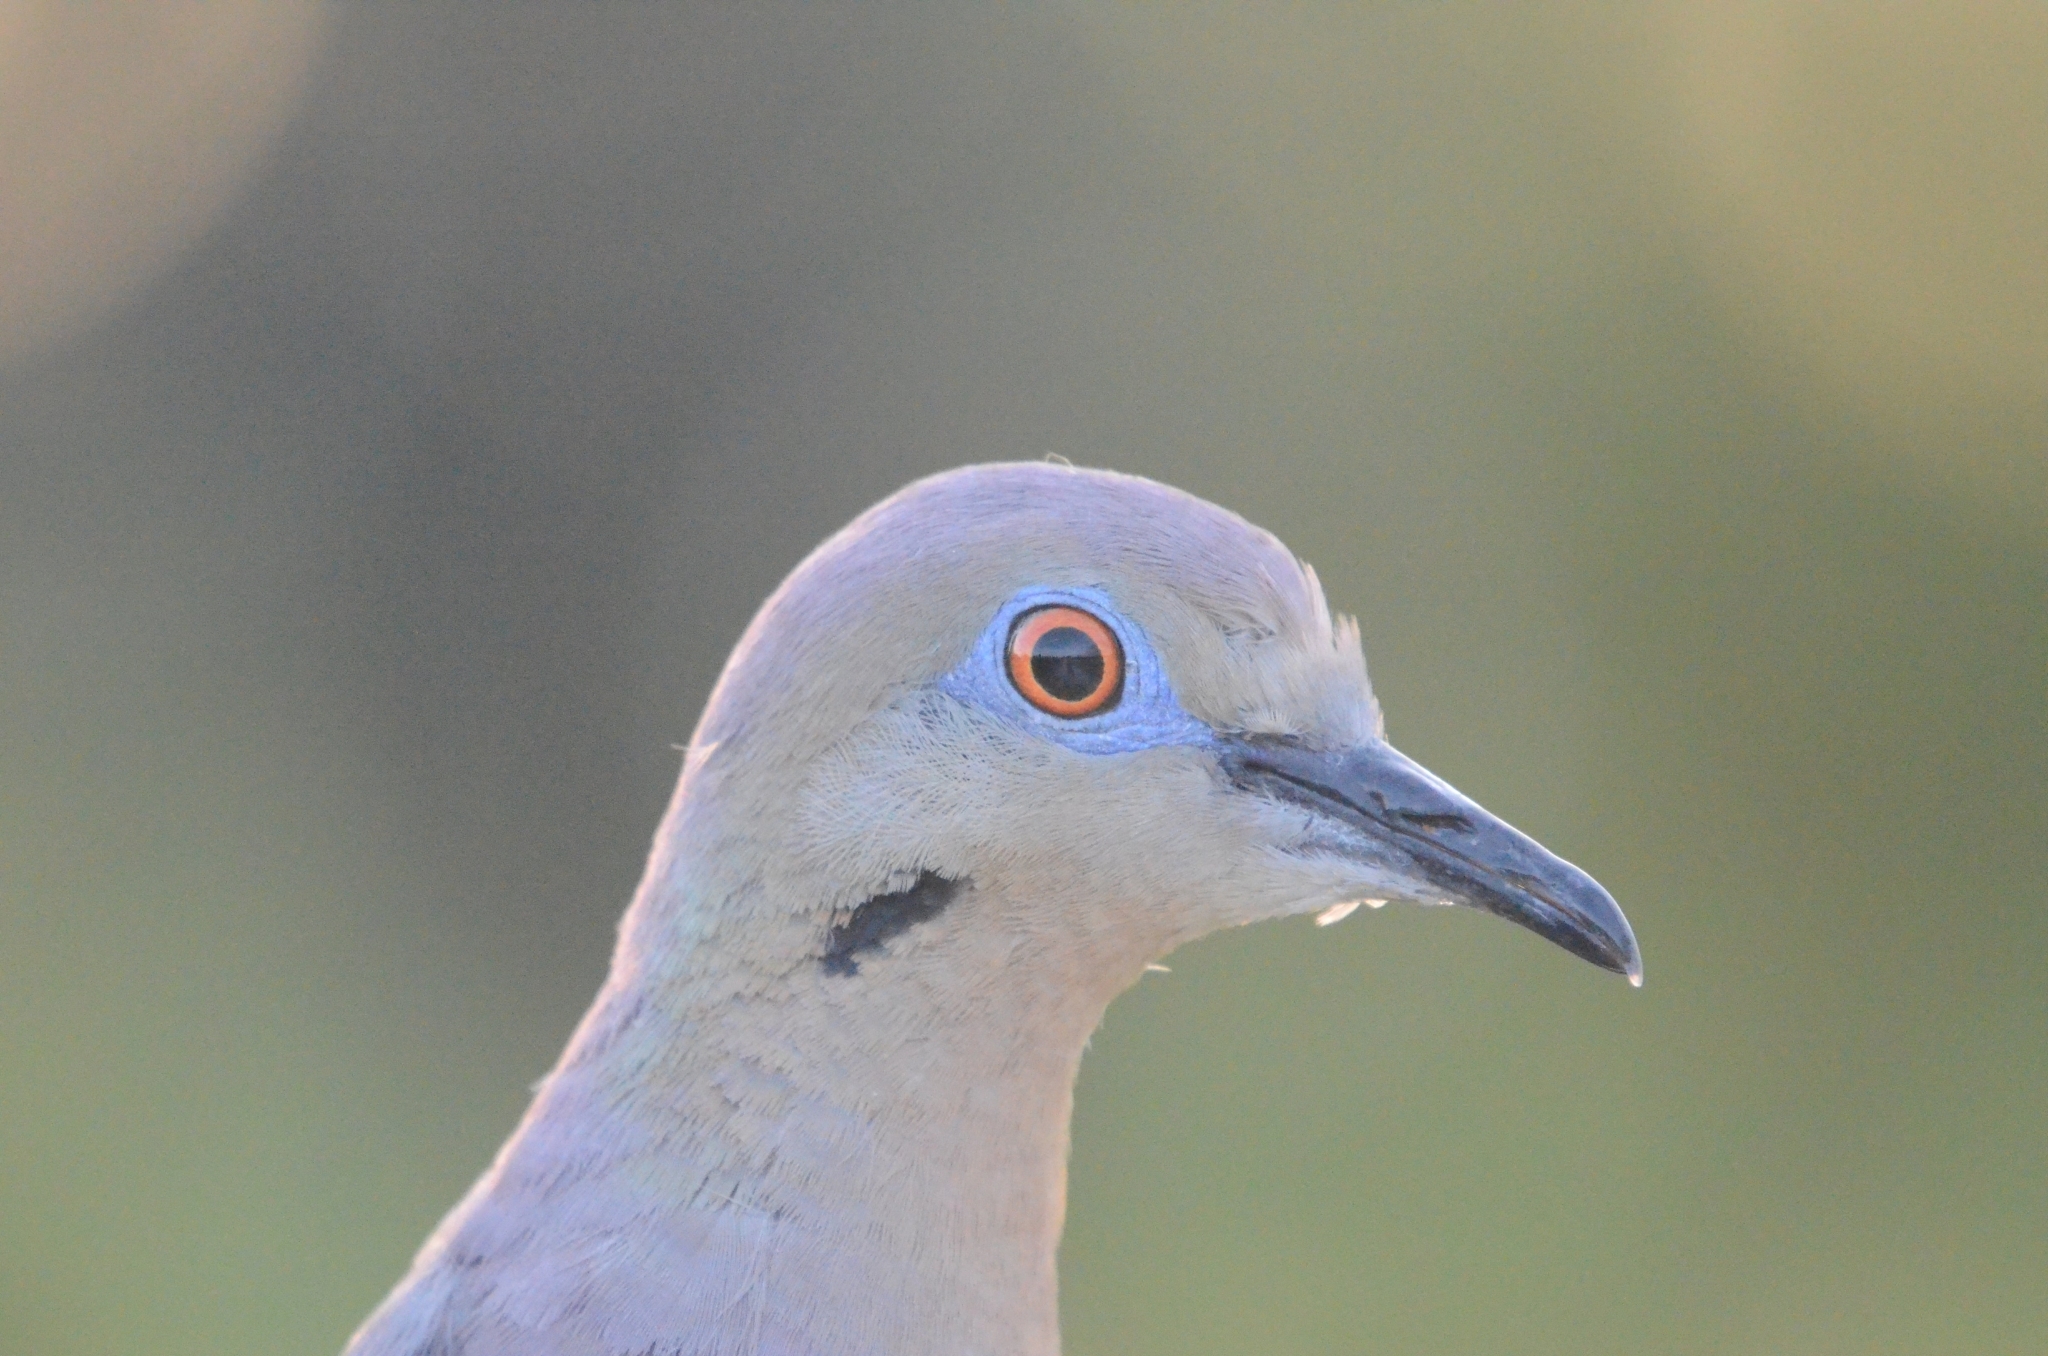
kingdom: Animalia
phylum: Chordata
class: Aves
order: Columbiformes
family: Columbidae
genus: Zenaida
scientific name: Zenaida asiatica
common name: White-winged dove
